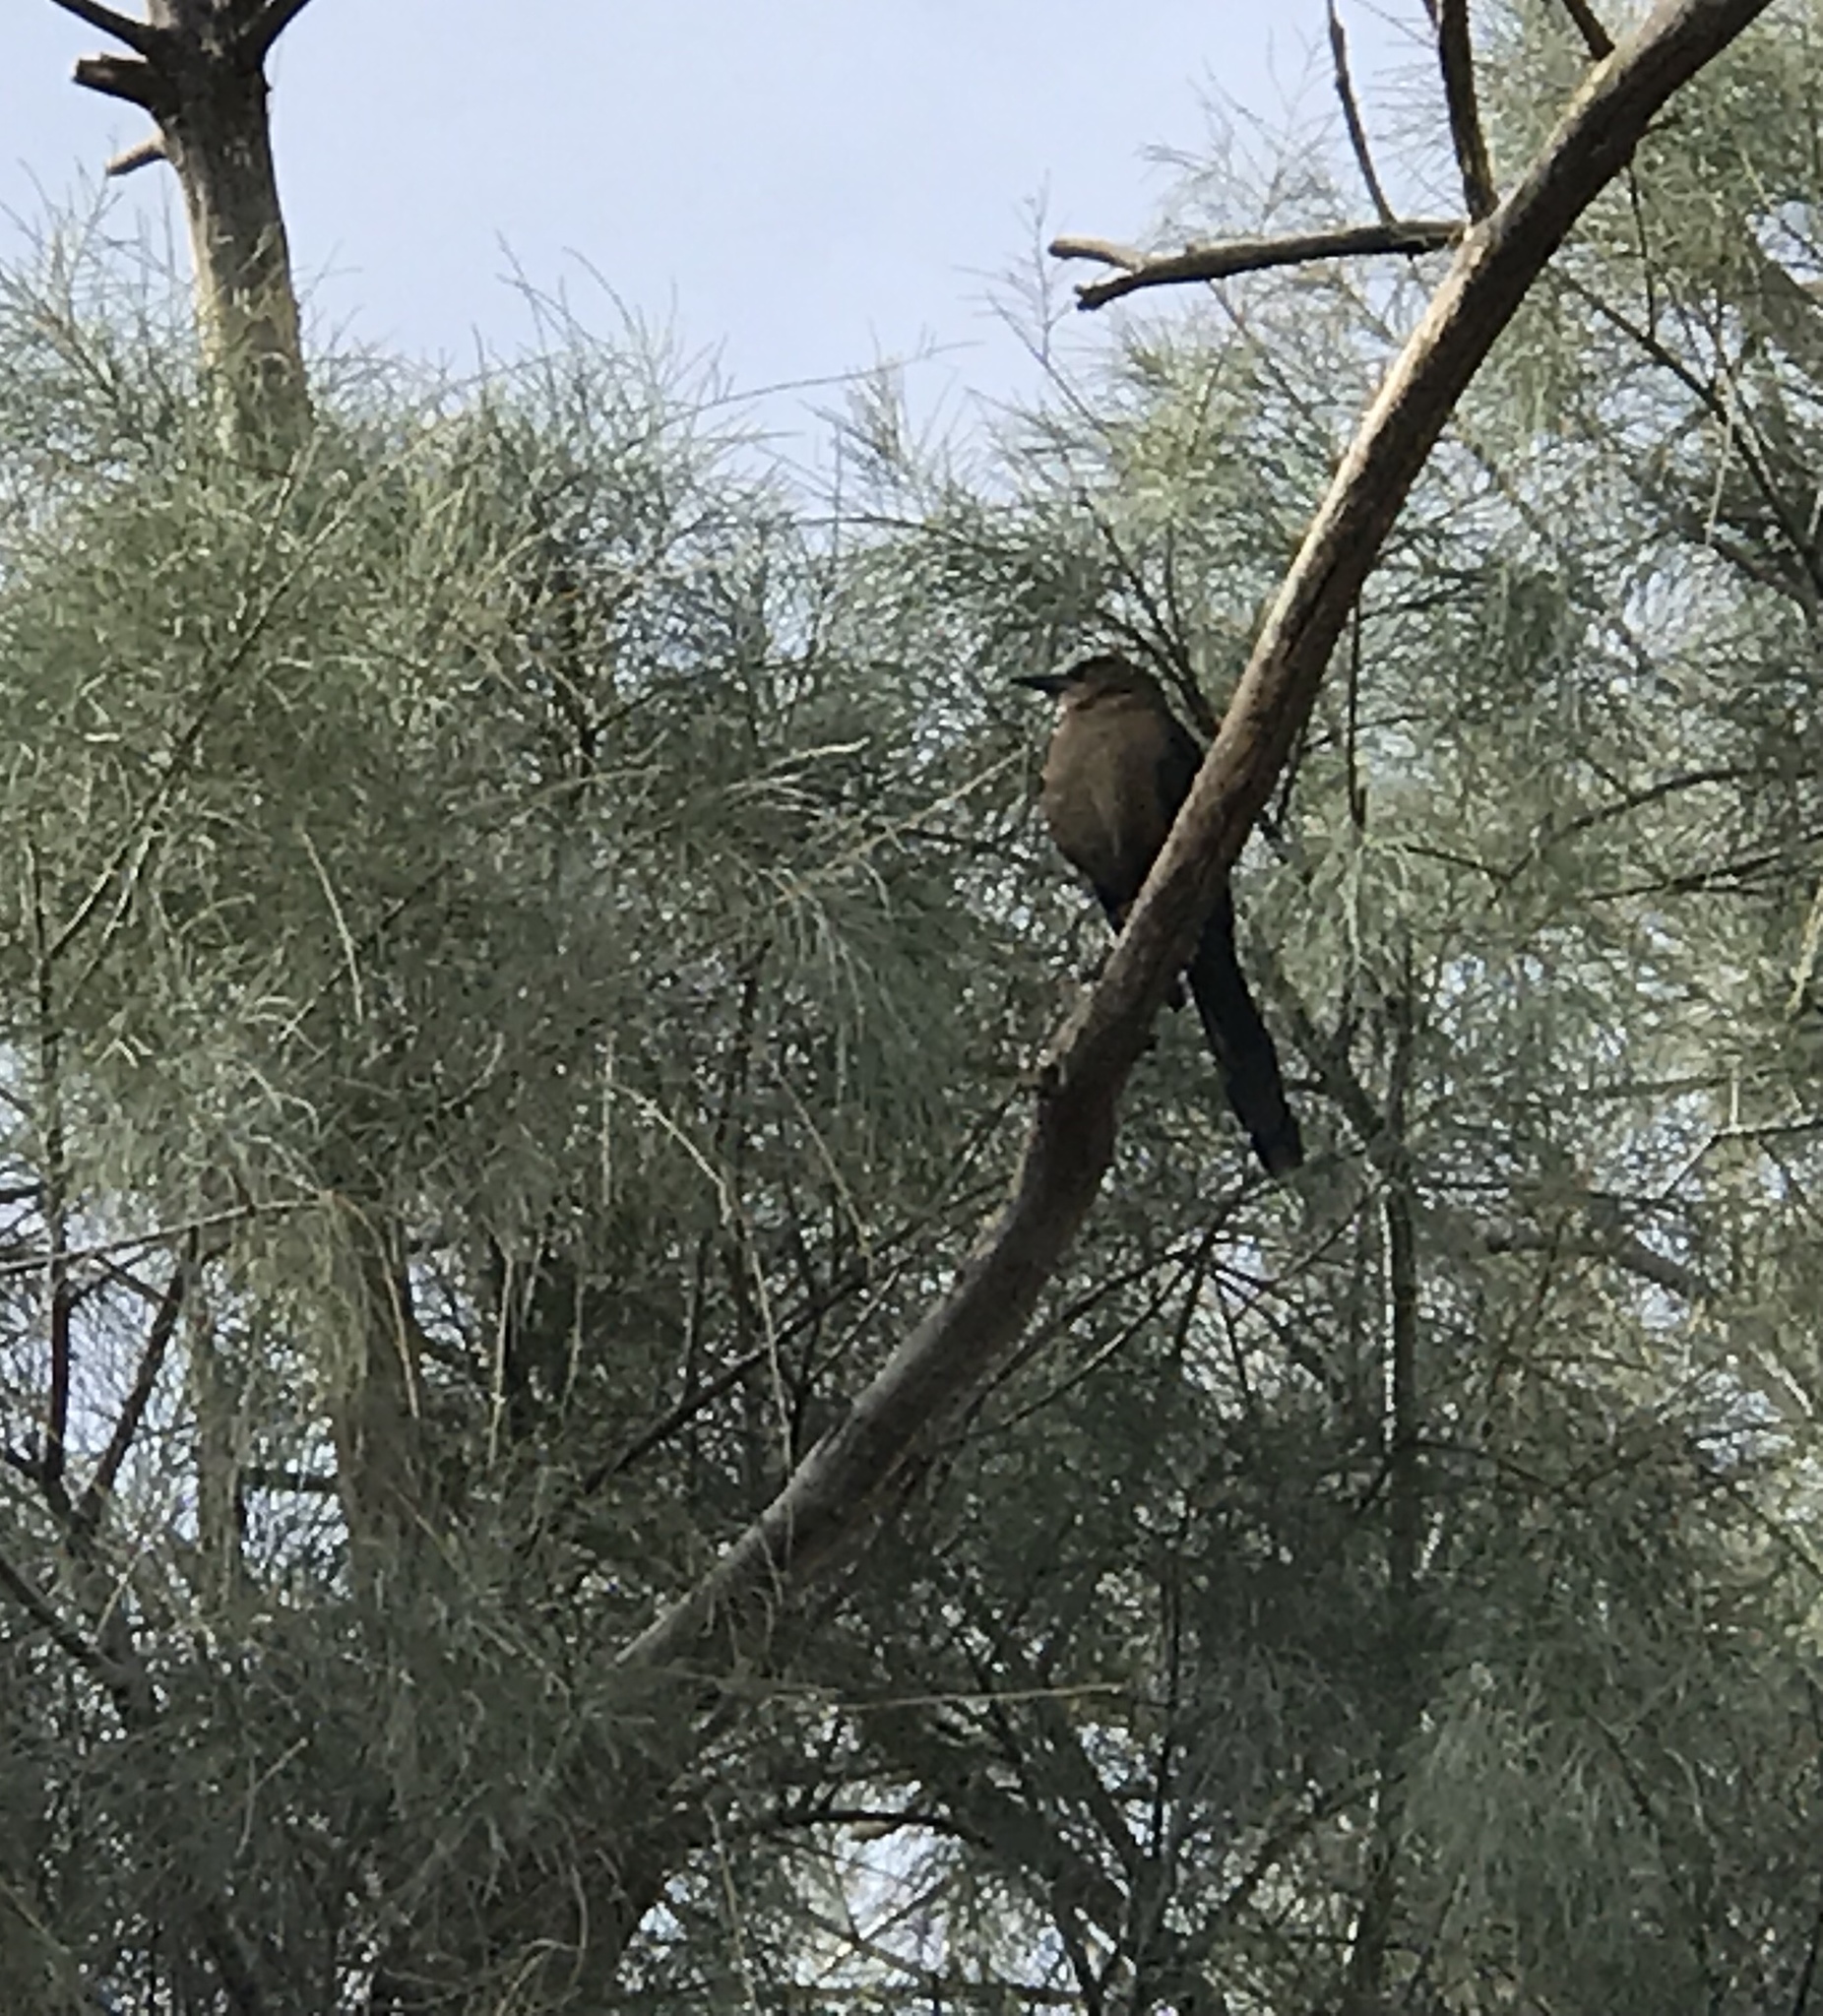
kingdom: Animalia
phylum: Chordata
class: Aves
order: Passeriformes
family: Icteridae
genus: Quiscalus
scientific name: Quiscalus mexicanus
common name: Great-tailed grackle
